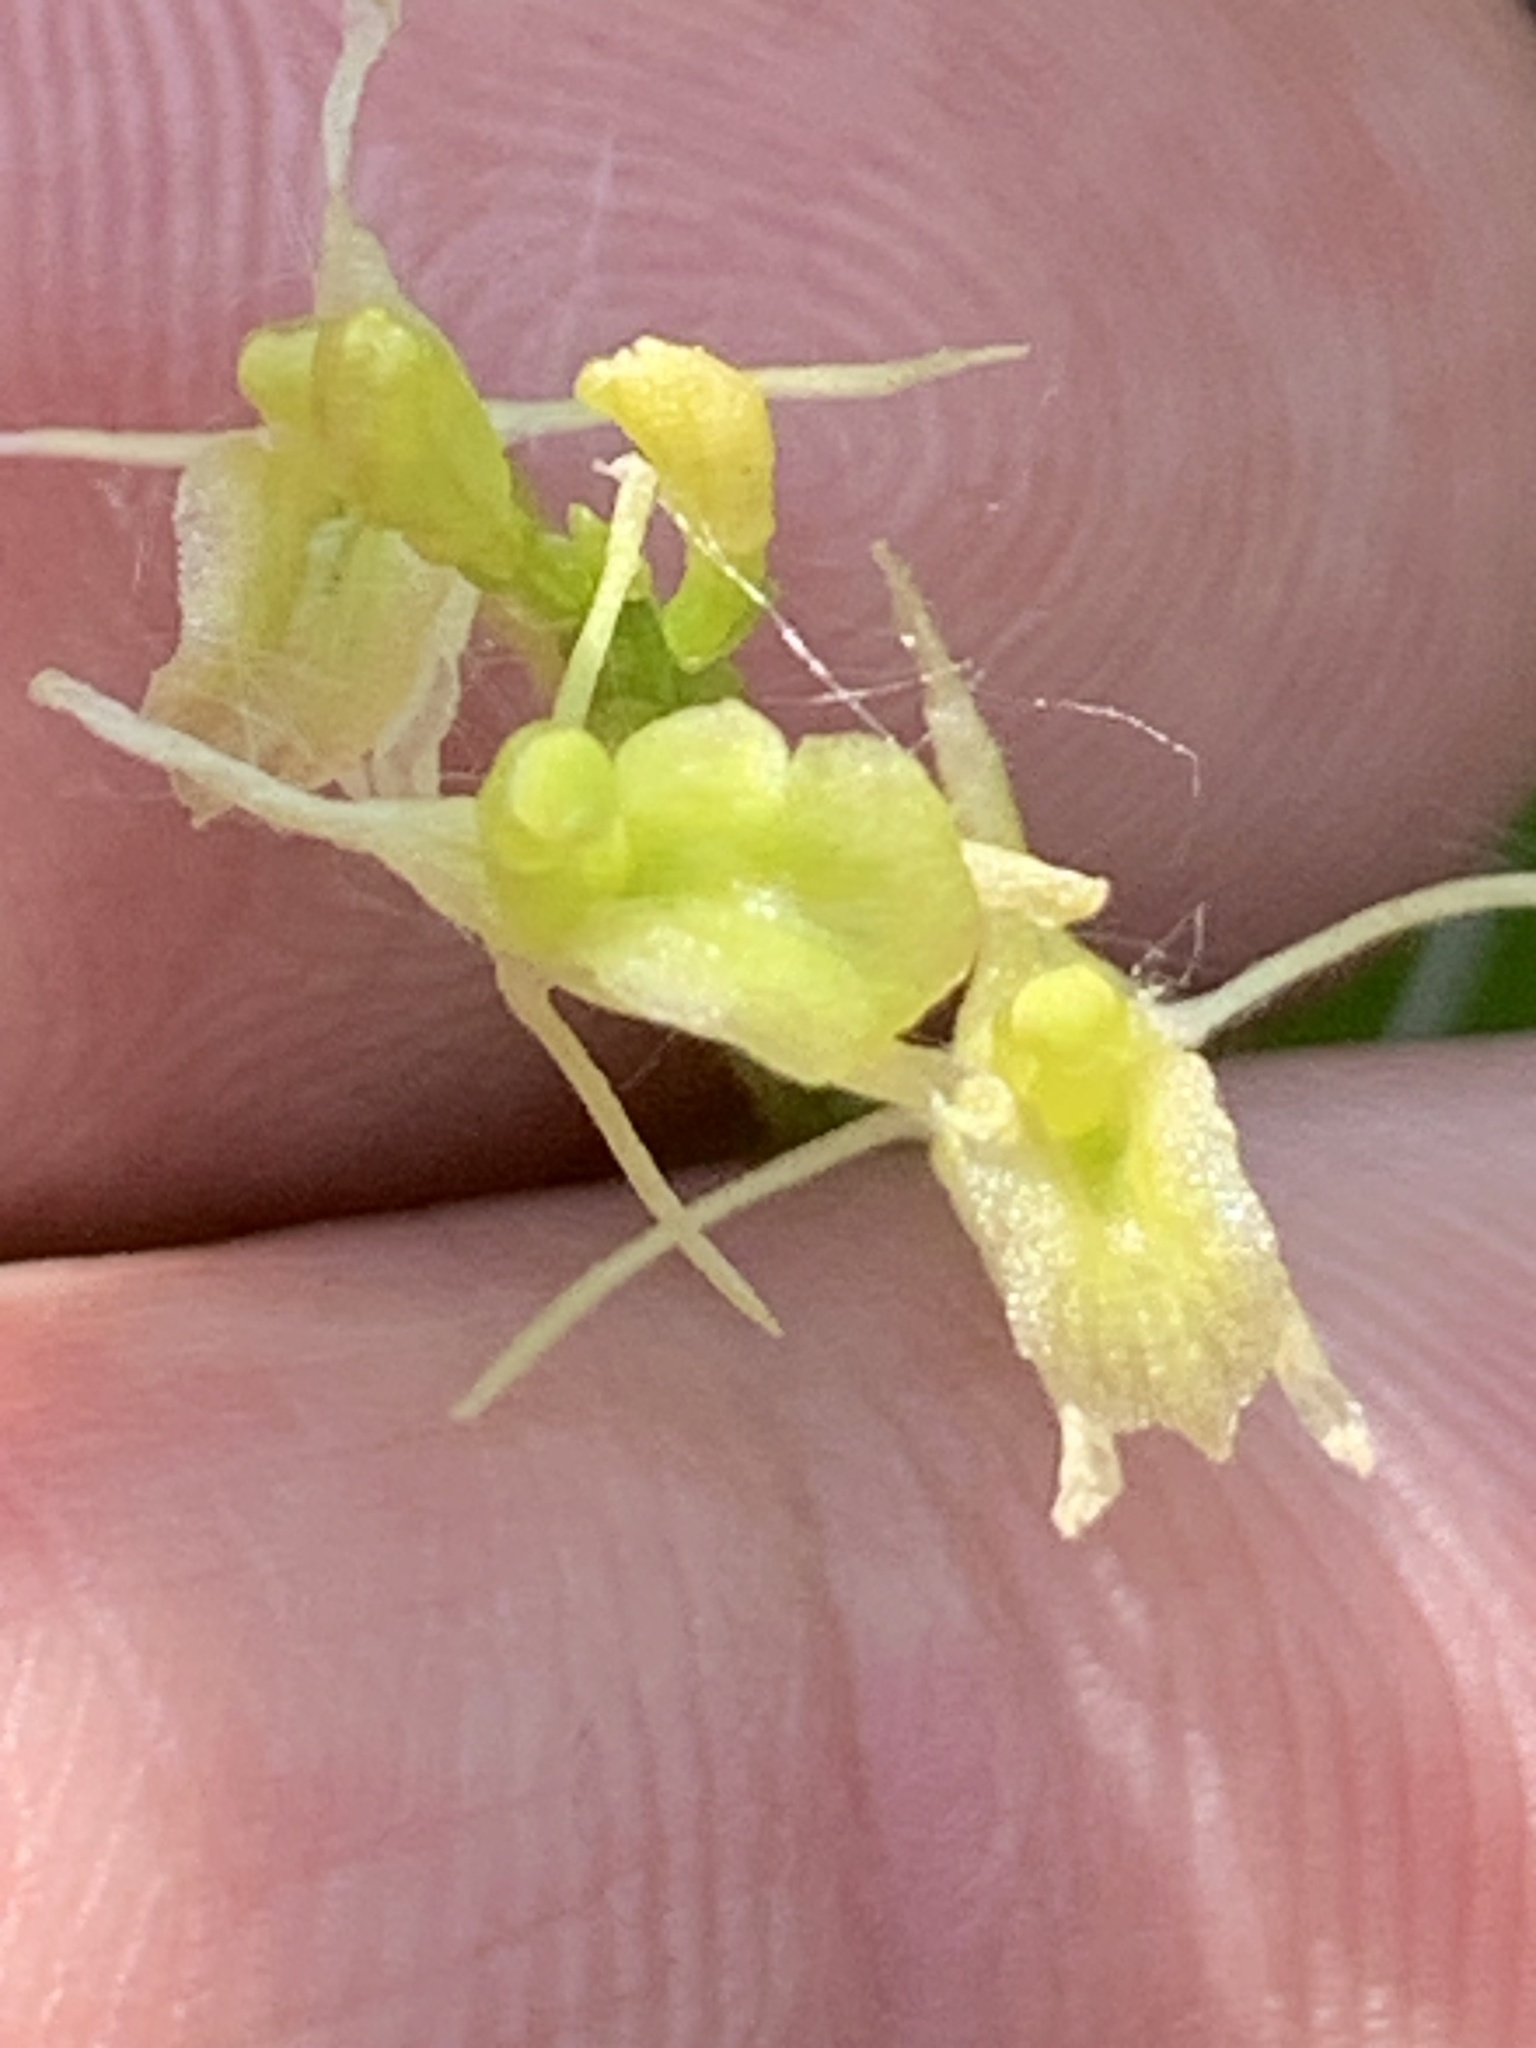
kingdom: Animalia
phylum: Arthropoda
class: Insecta
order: Coleoptera
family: Curculionidae
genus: Liparis
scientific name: Liparis loeselii
